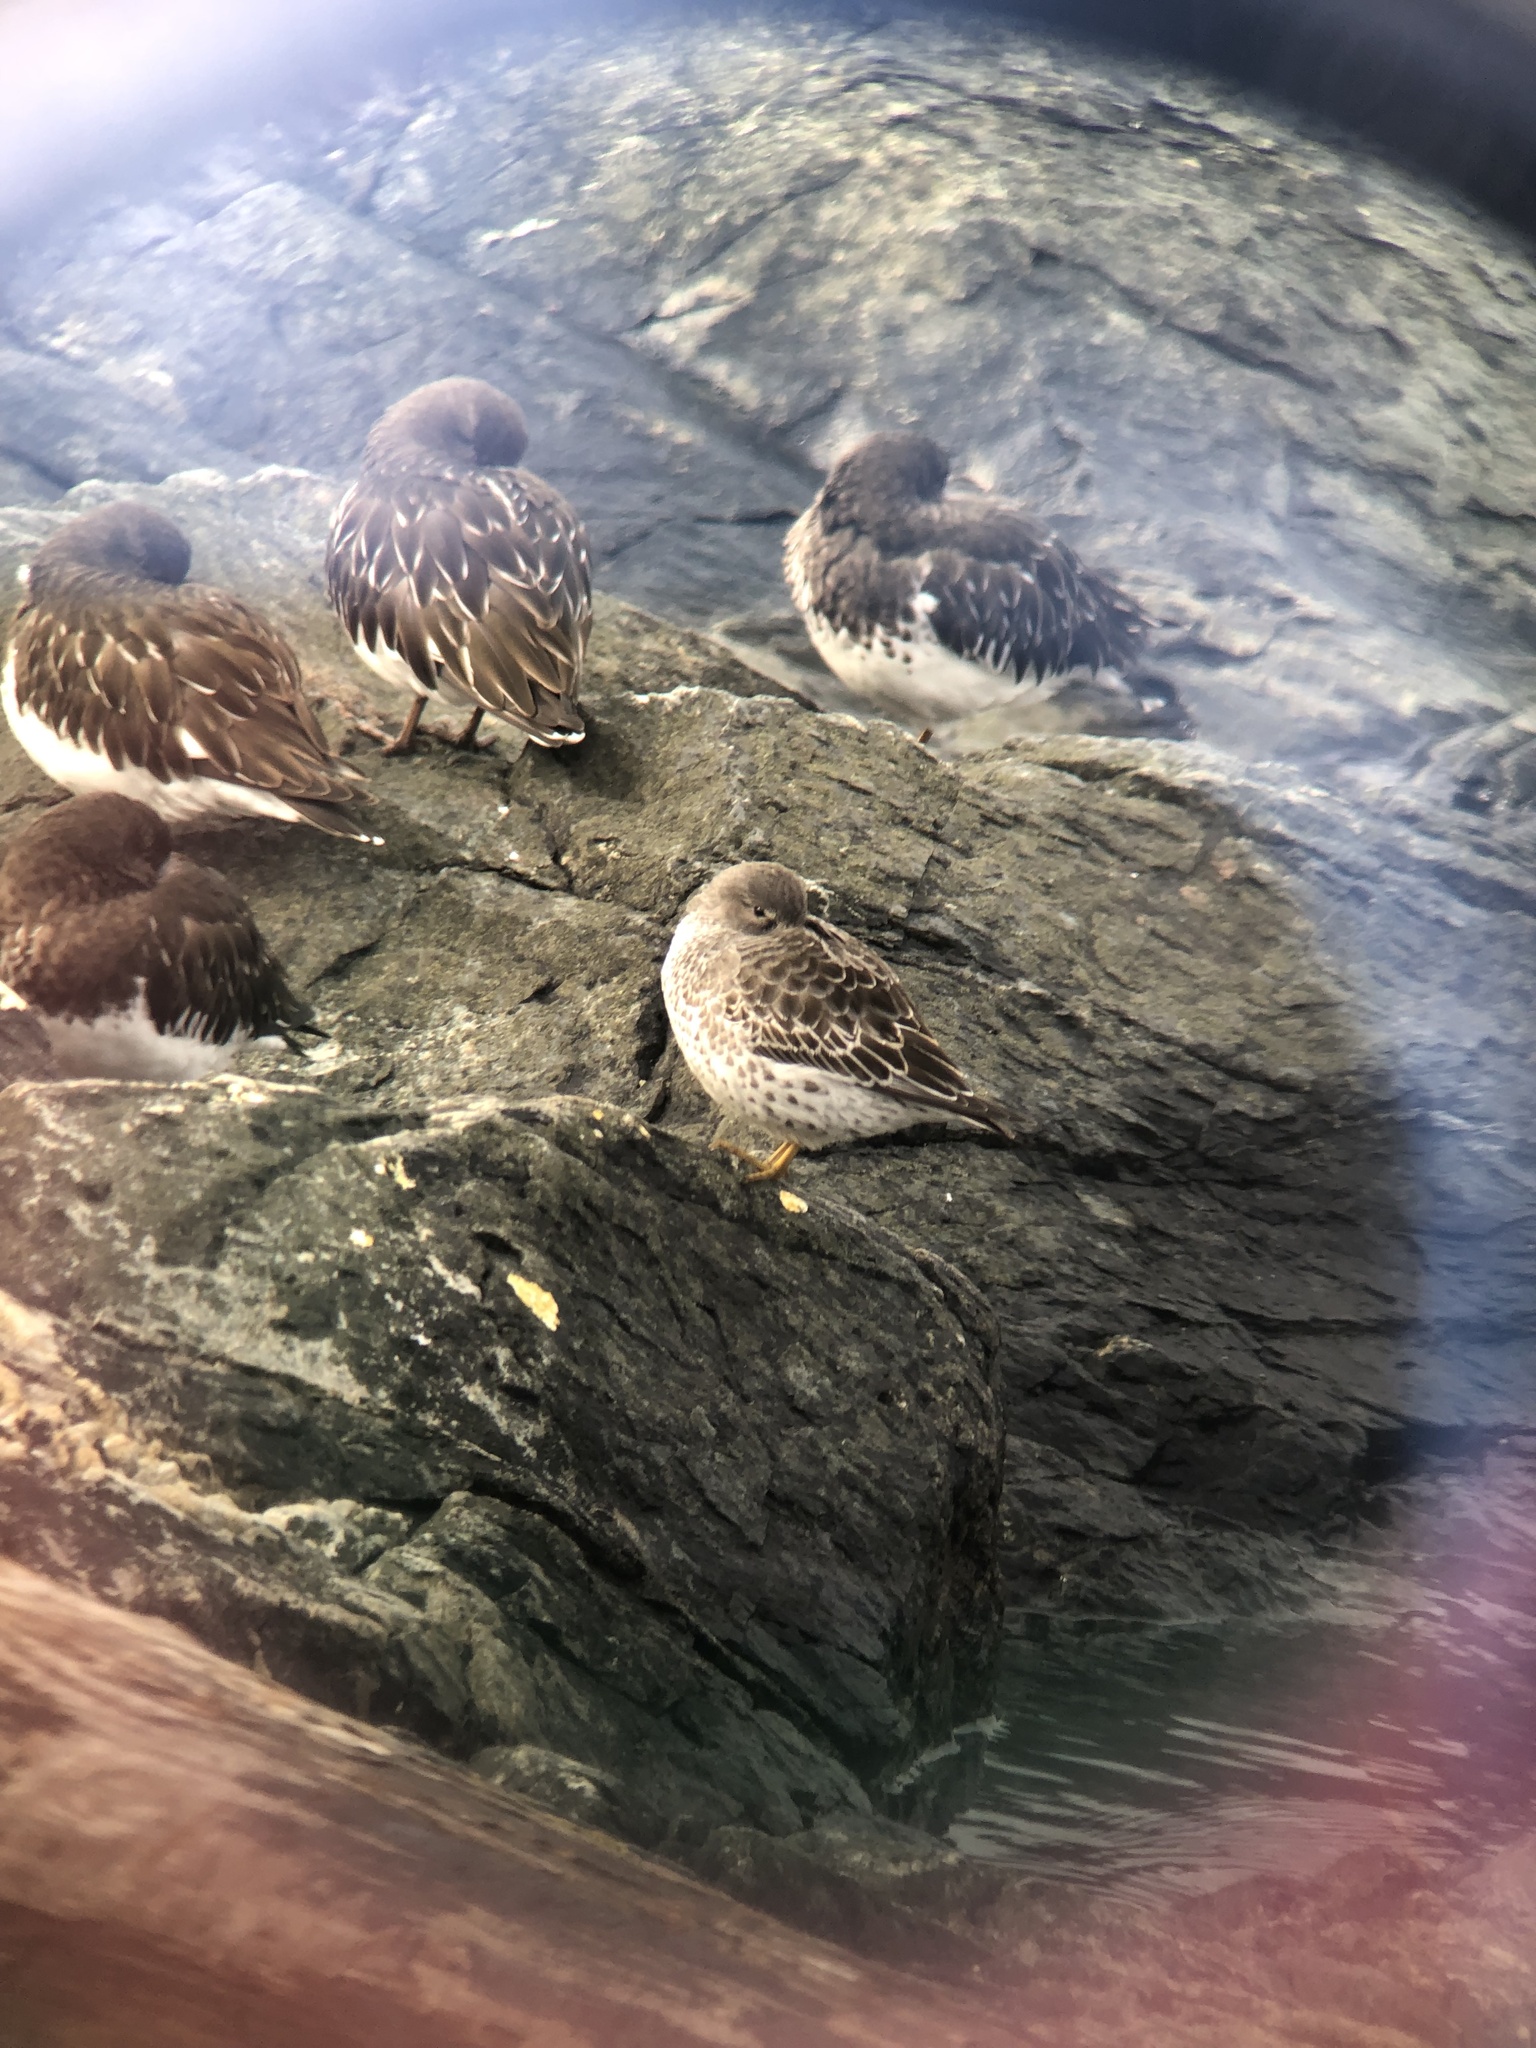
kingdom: Animalia
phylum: Chordata
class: Aves
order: Charadriiformes
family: Scolopacidae
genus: Calidris
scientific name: Calidris ptilocnemis
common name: Rock sandpiper
